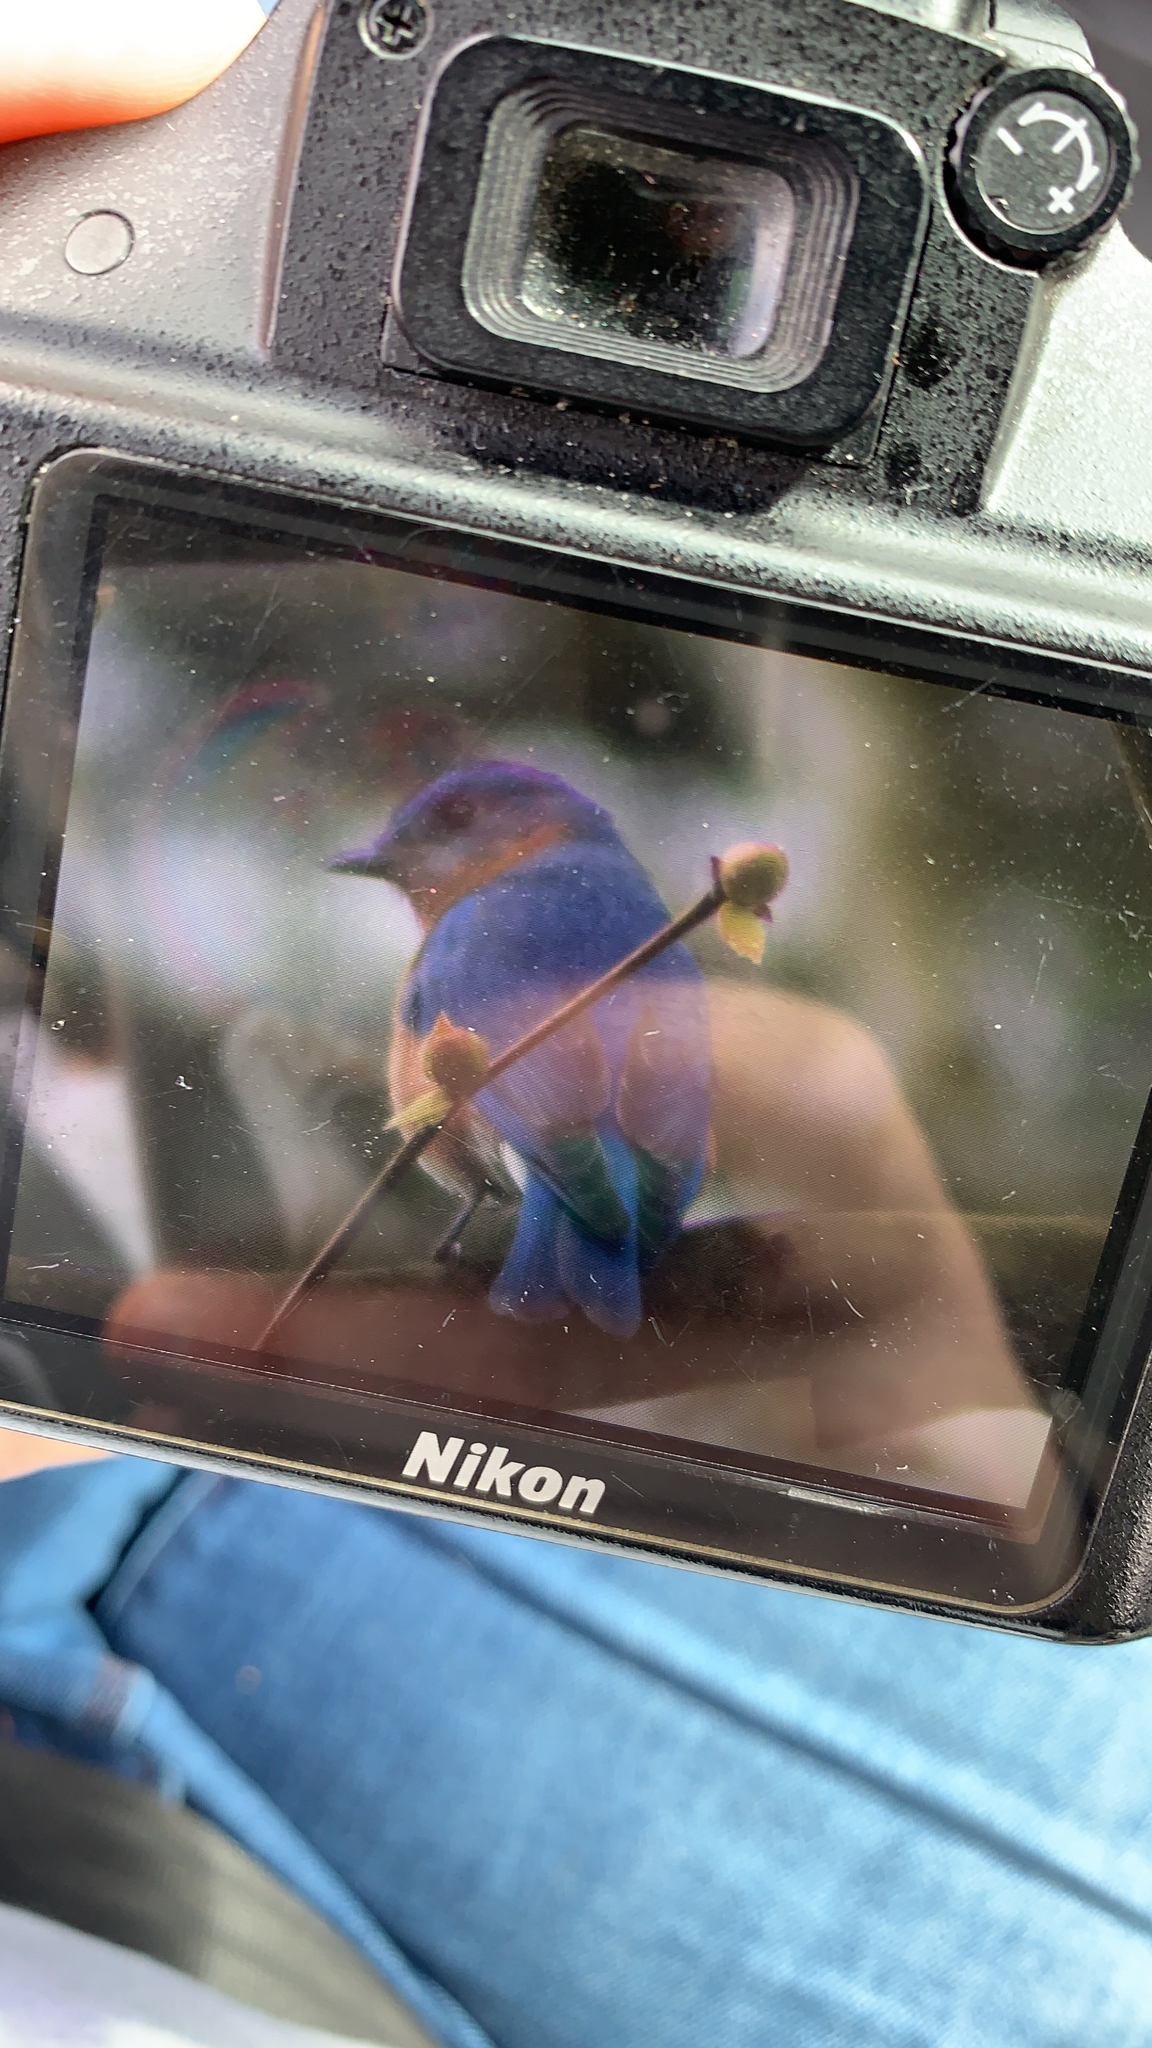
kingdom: Animalia
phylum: Chordata
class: Aves
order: Passeriformes
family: Turdidae
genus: Sialia
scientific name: Sialia sialis
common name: Eastern bluebird
